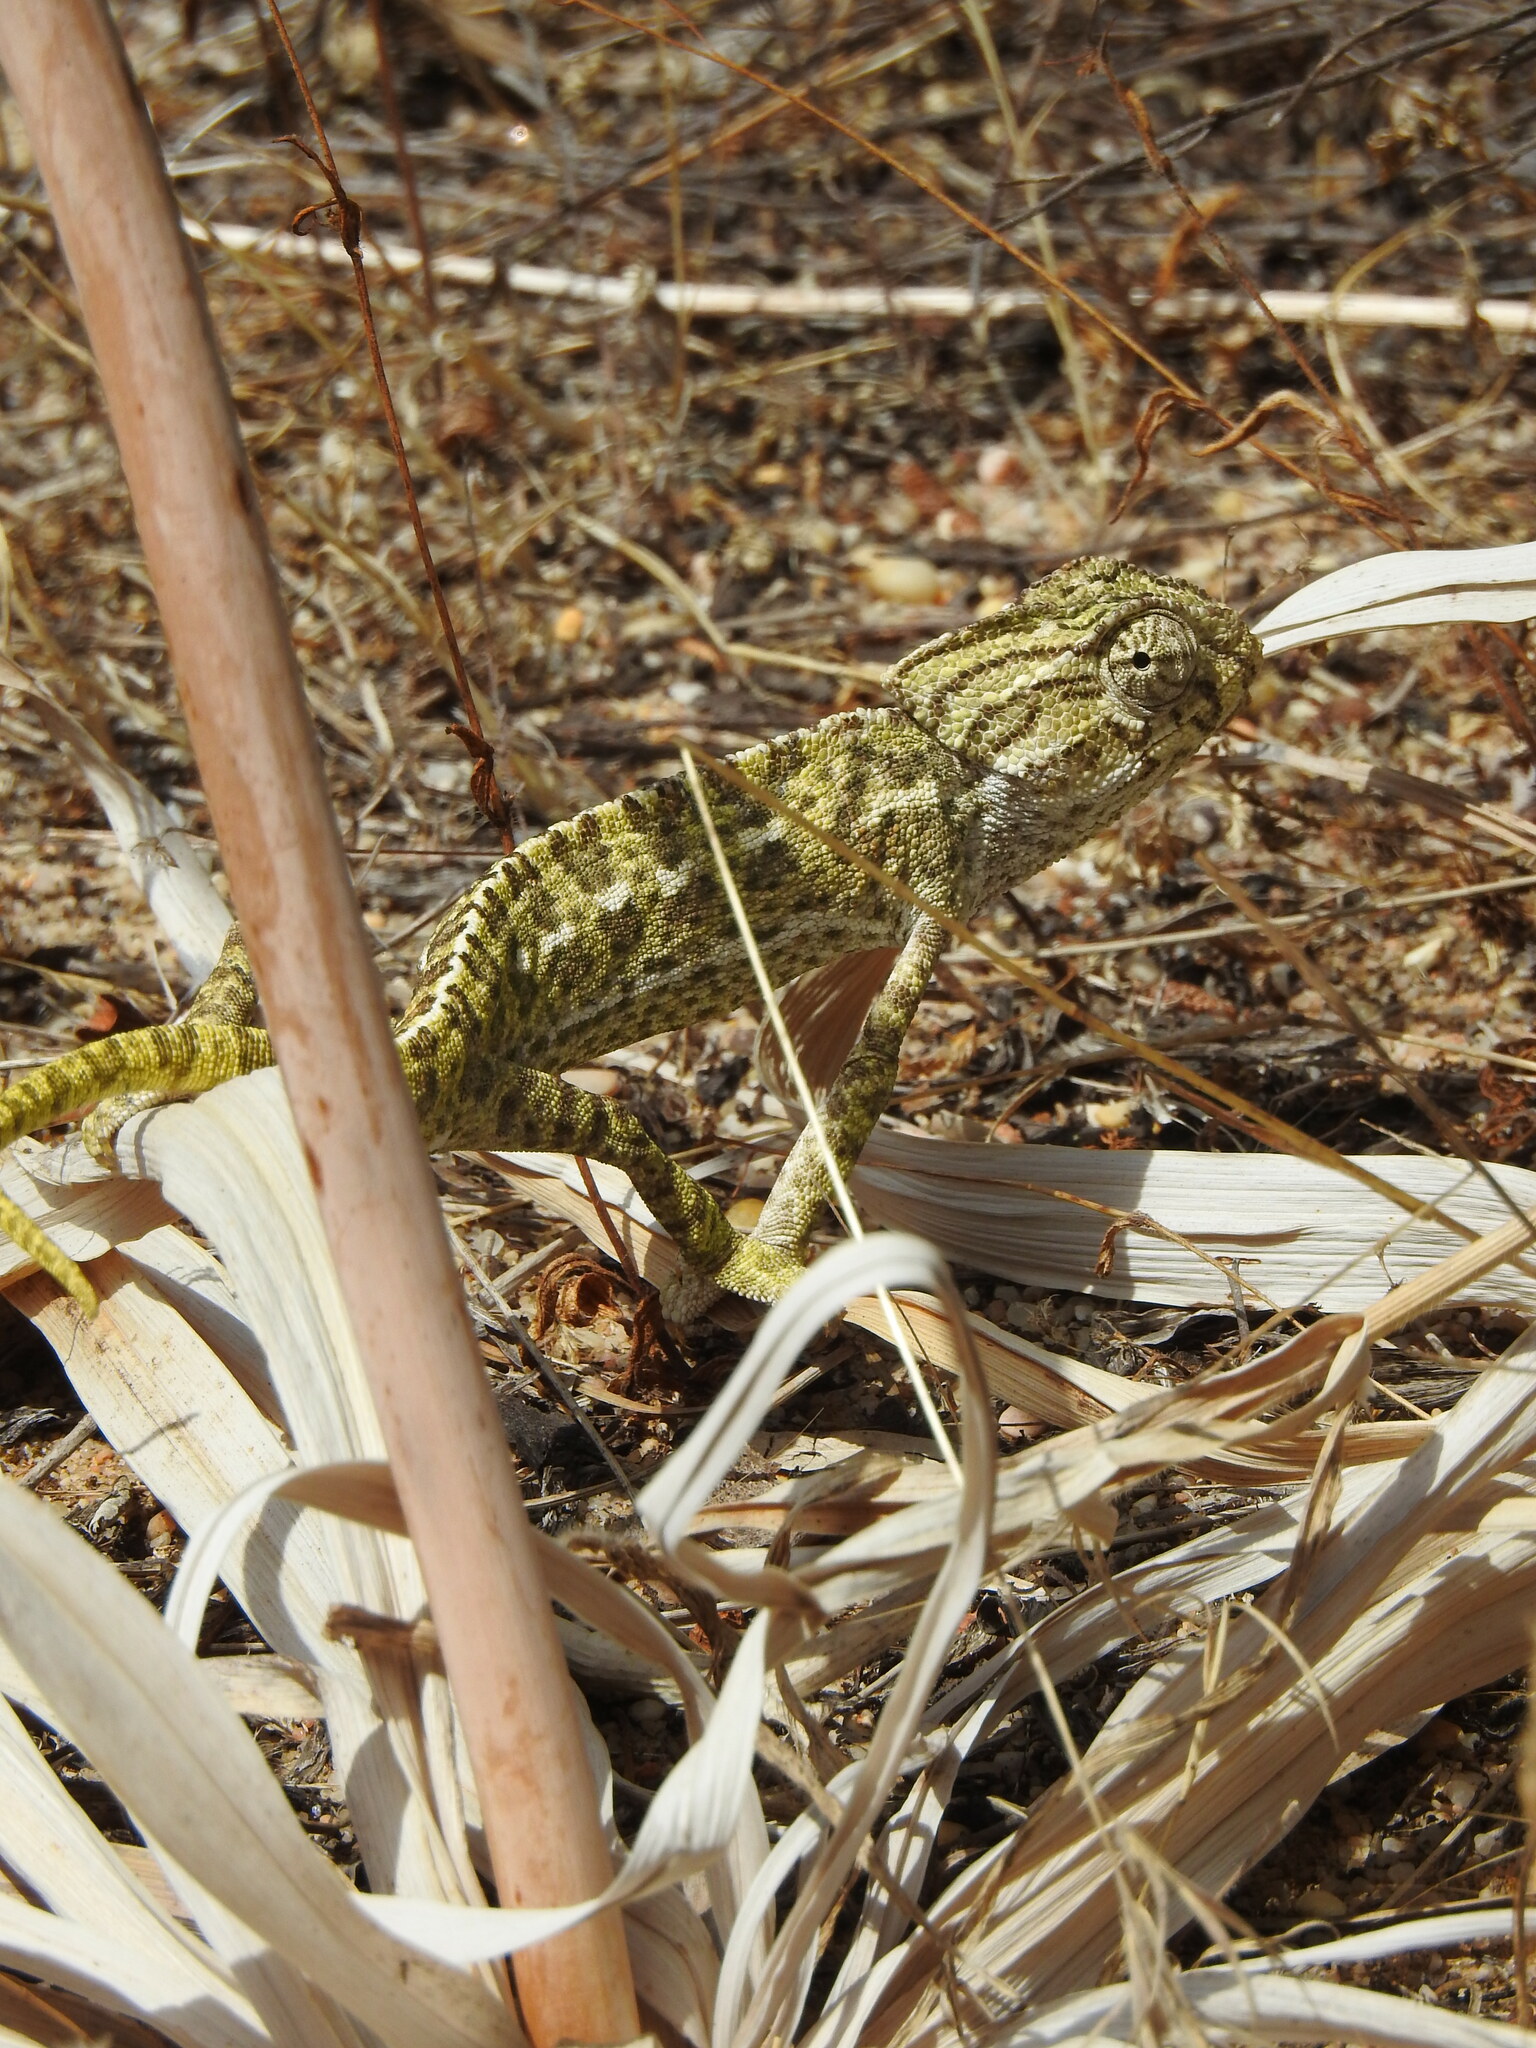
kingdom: Animalia
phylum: Chordata
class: Squamata
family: Chamaeleonidae
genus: Chamaeleo
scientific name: Chamaeleo chamaeleon
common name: Mediterranean chameleon
